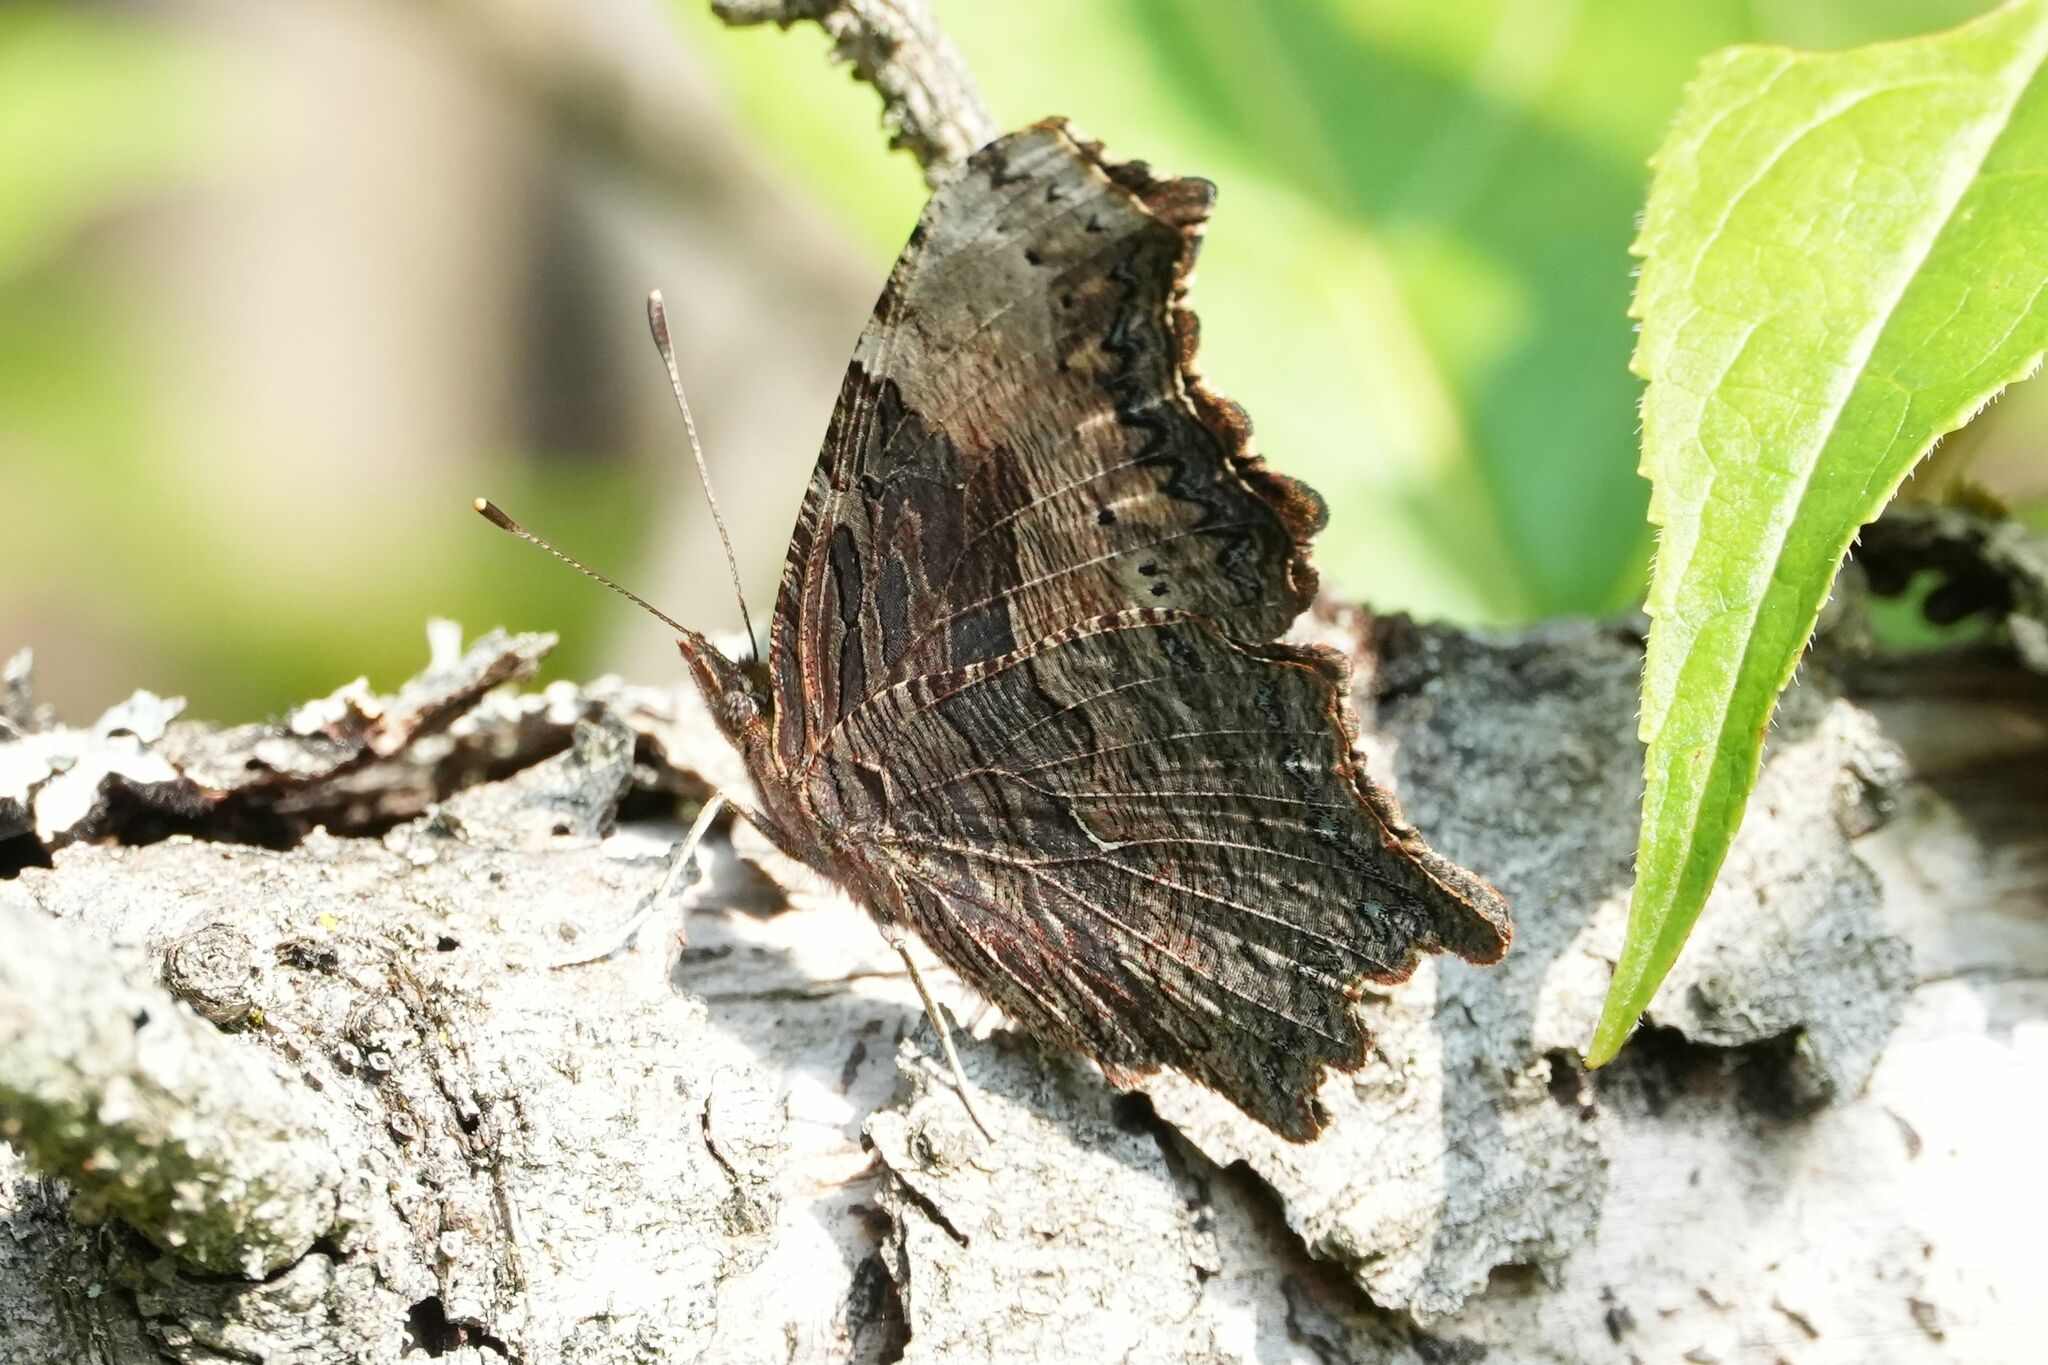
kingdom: Animalia
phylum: Arthropoda
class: Insecta
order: Lepidoptera
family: Nymphalidae
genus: Polygonia
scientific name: Polygonia progne
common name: Gray comma
